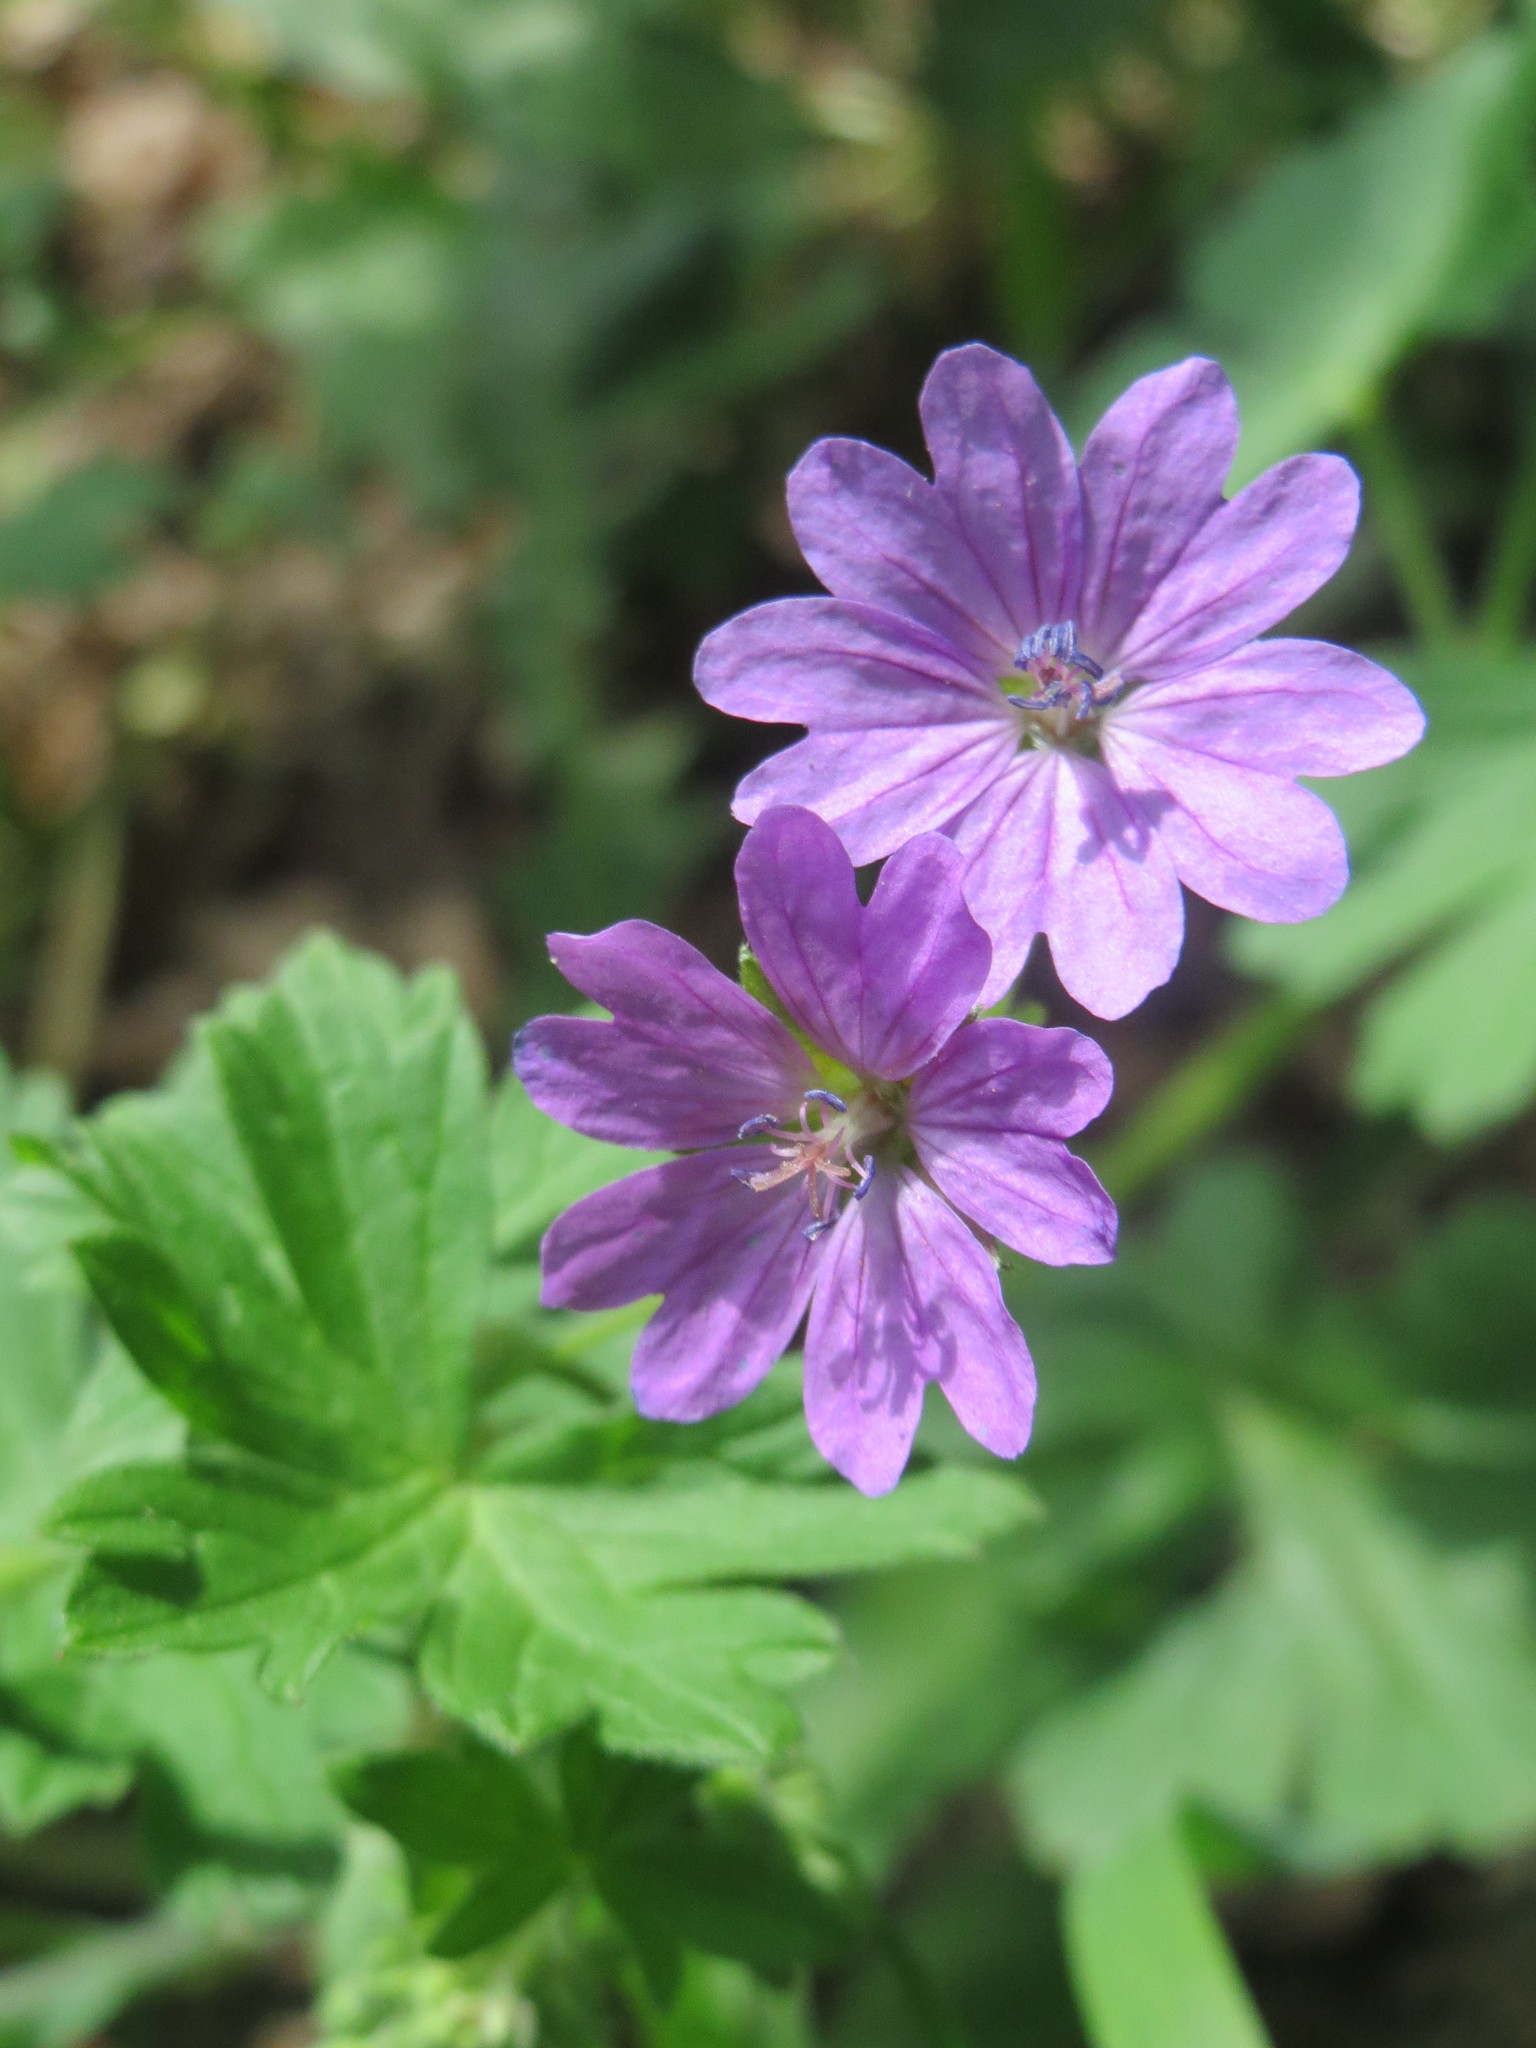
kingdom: Plantae
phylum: Tracheophyta
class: Magnoliopsida
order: Geraniales
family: Geraniaceae
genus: Geranium
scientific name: Geranium pyrenaicum
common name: Hedgerow crane's-bill
